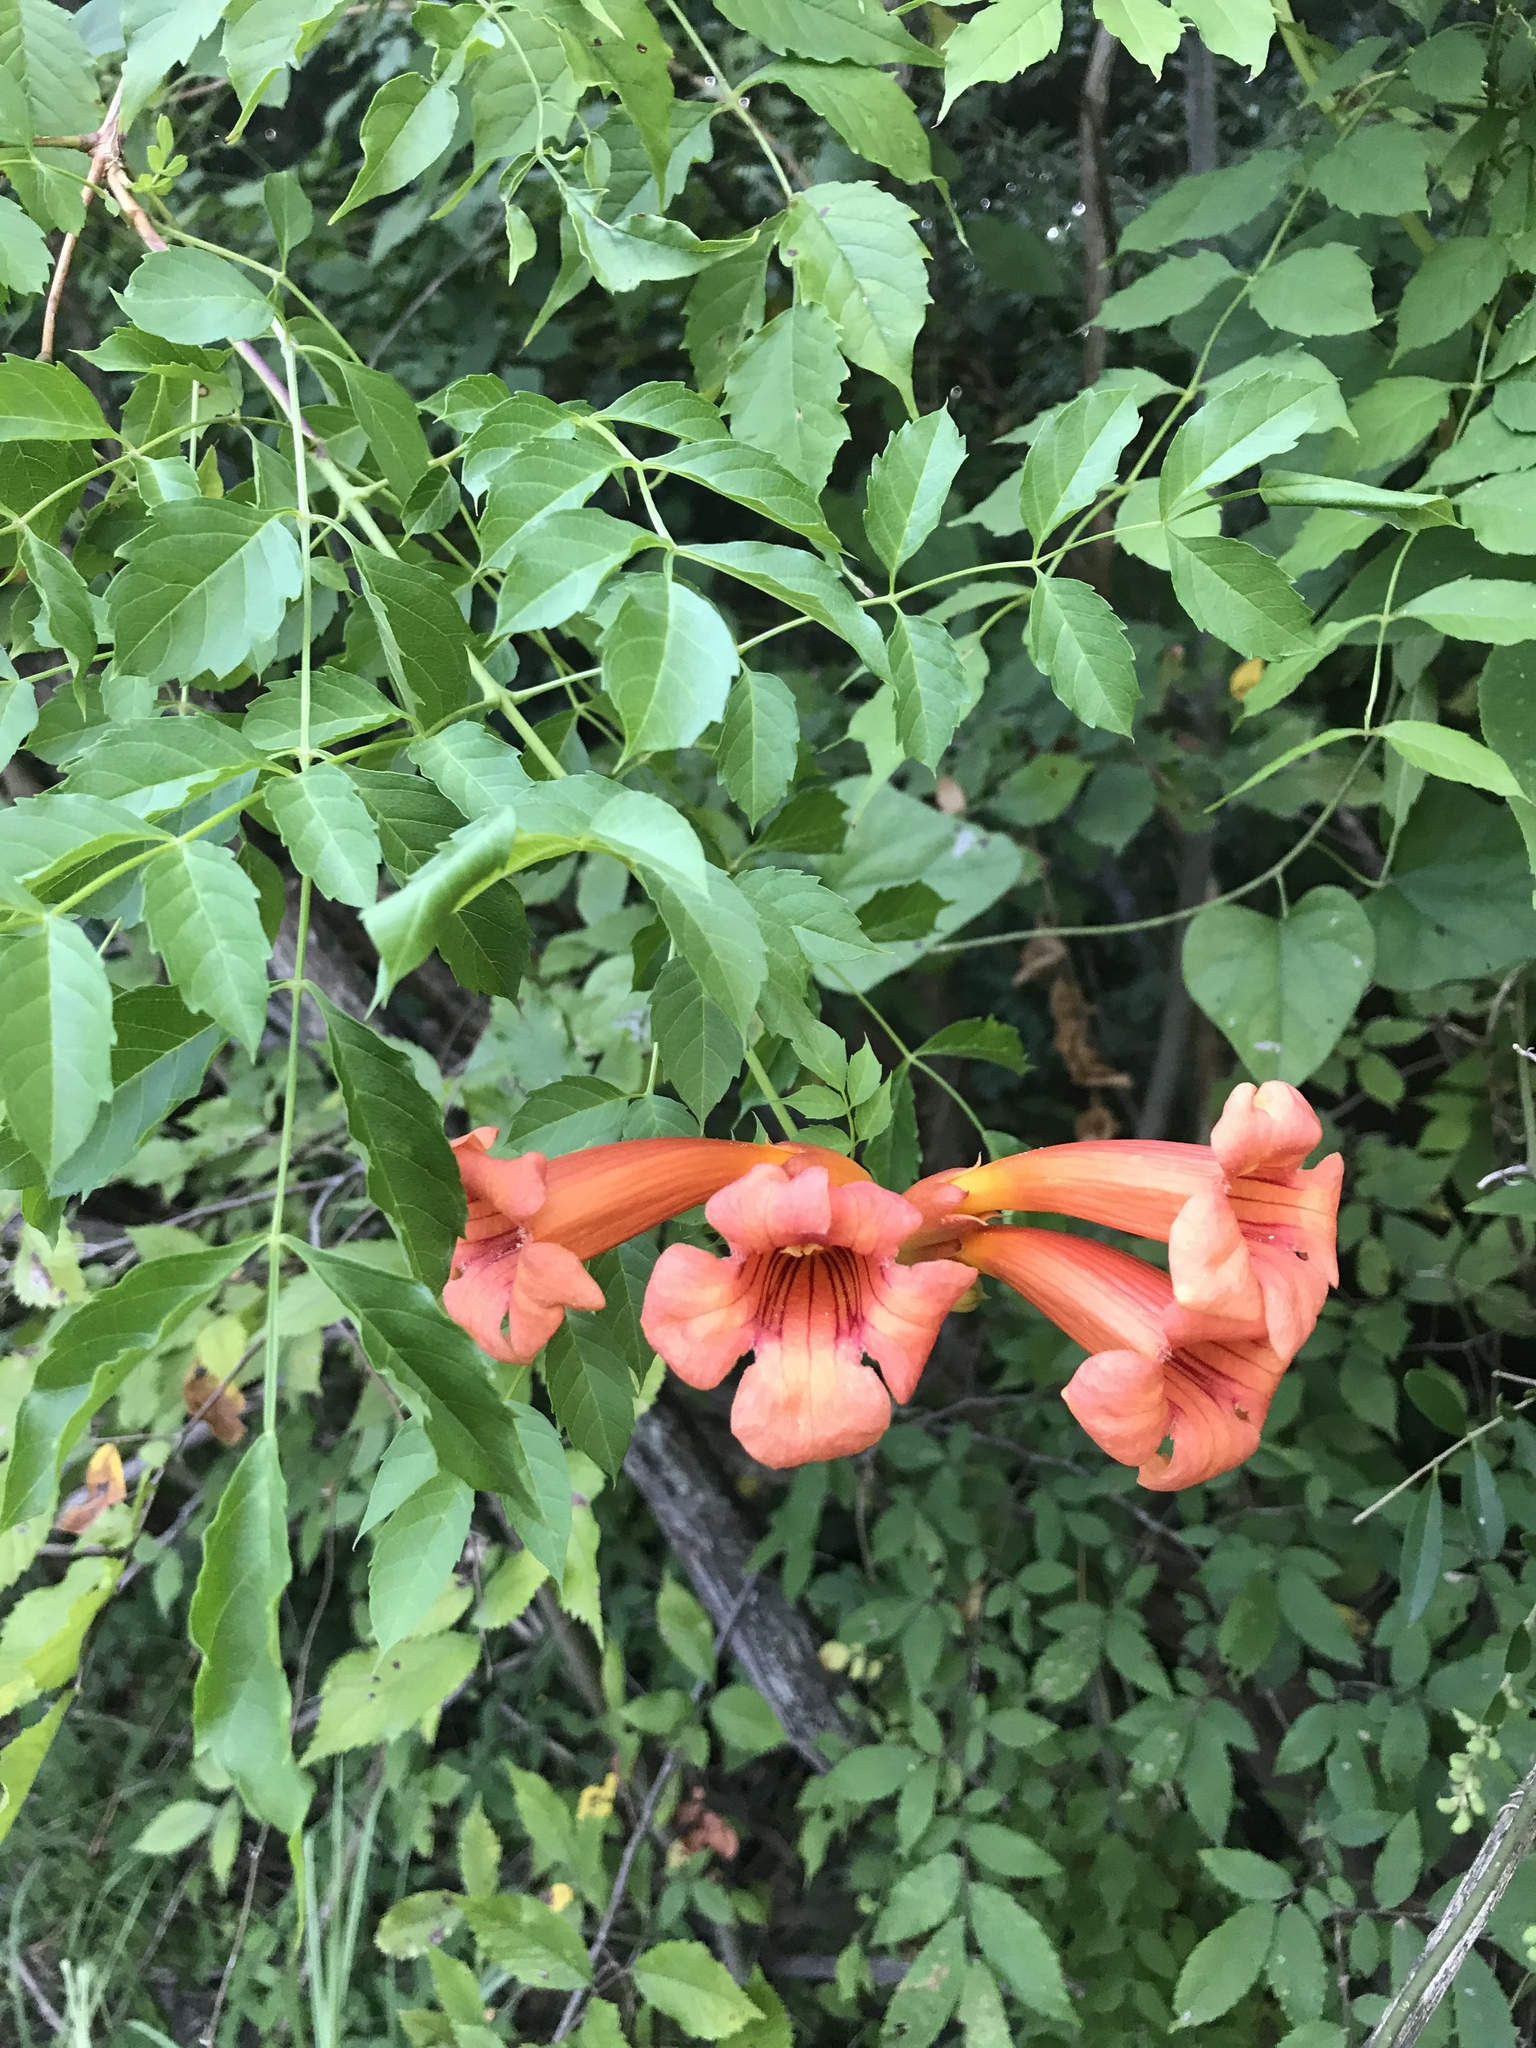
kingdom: Plantae
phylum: Tracheophyta
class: Magnoliopsida
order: Lamiales
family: Bignoniaceae
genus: Campsis
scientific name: Campsis radicans
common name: Trumpet-creeper
